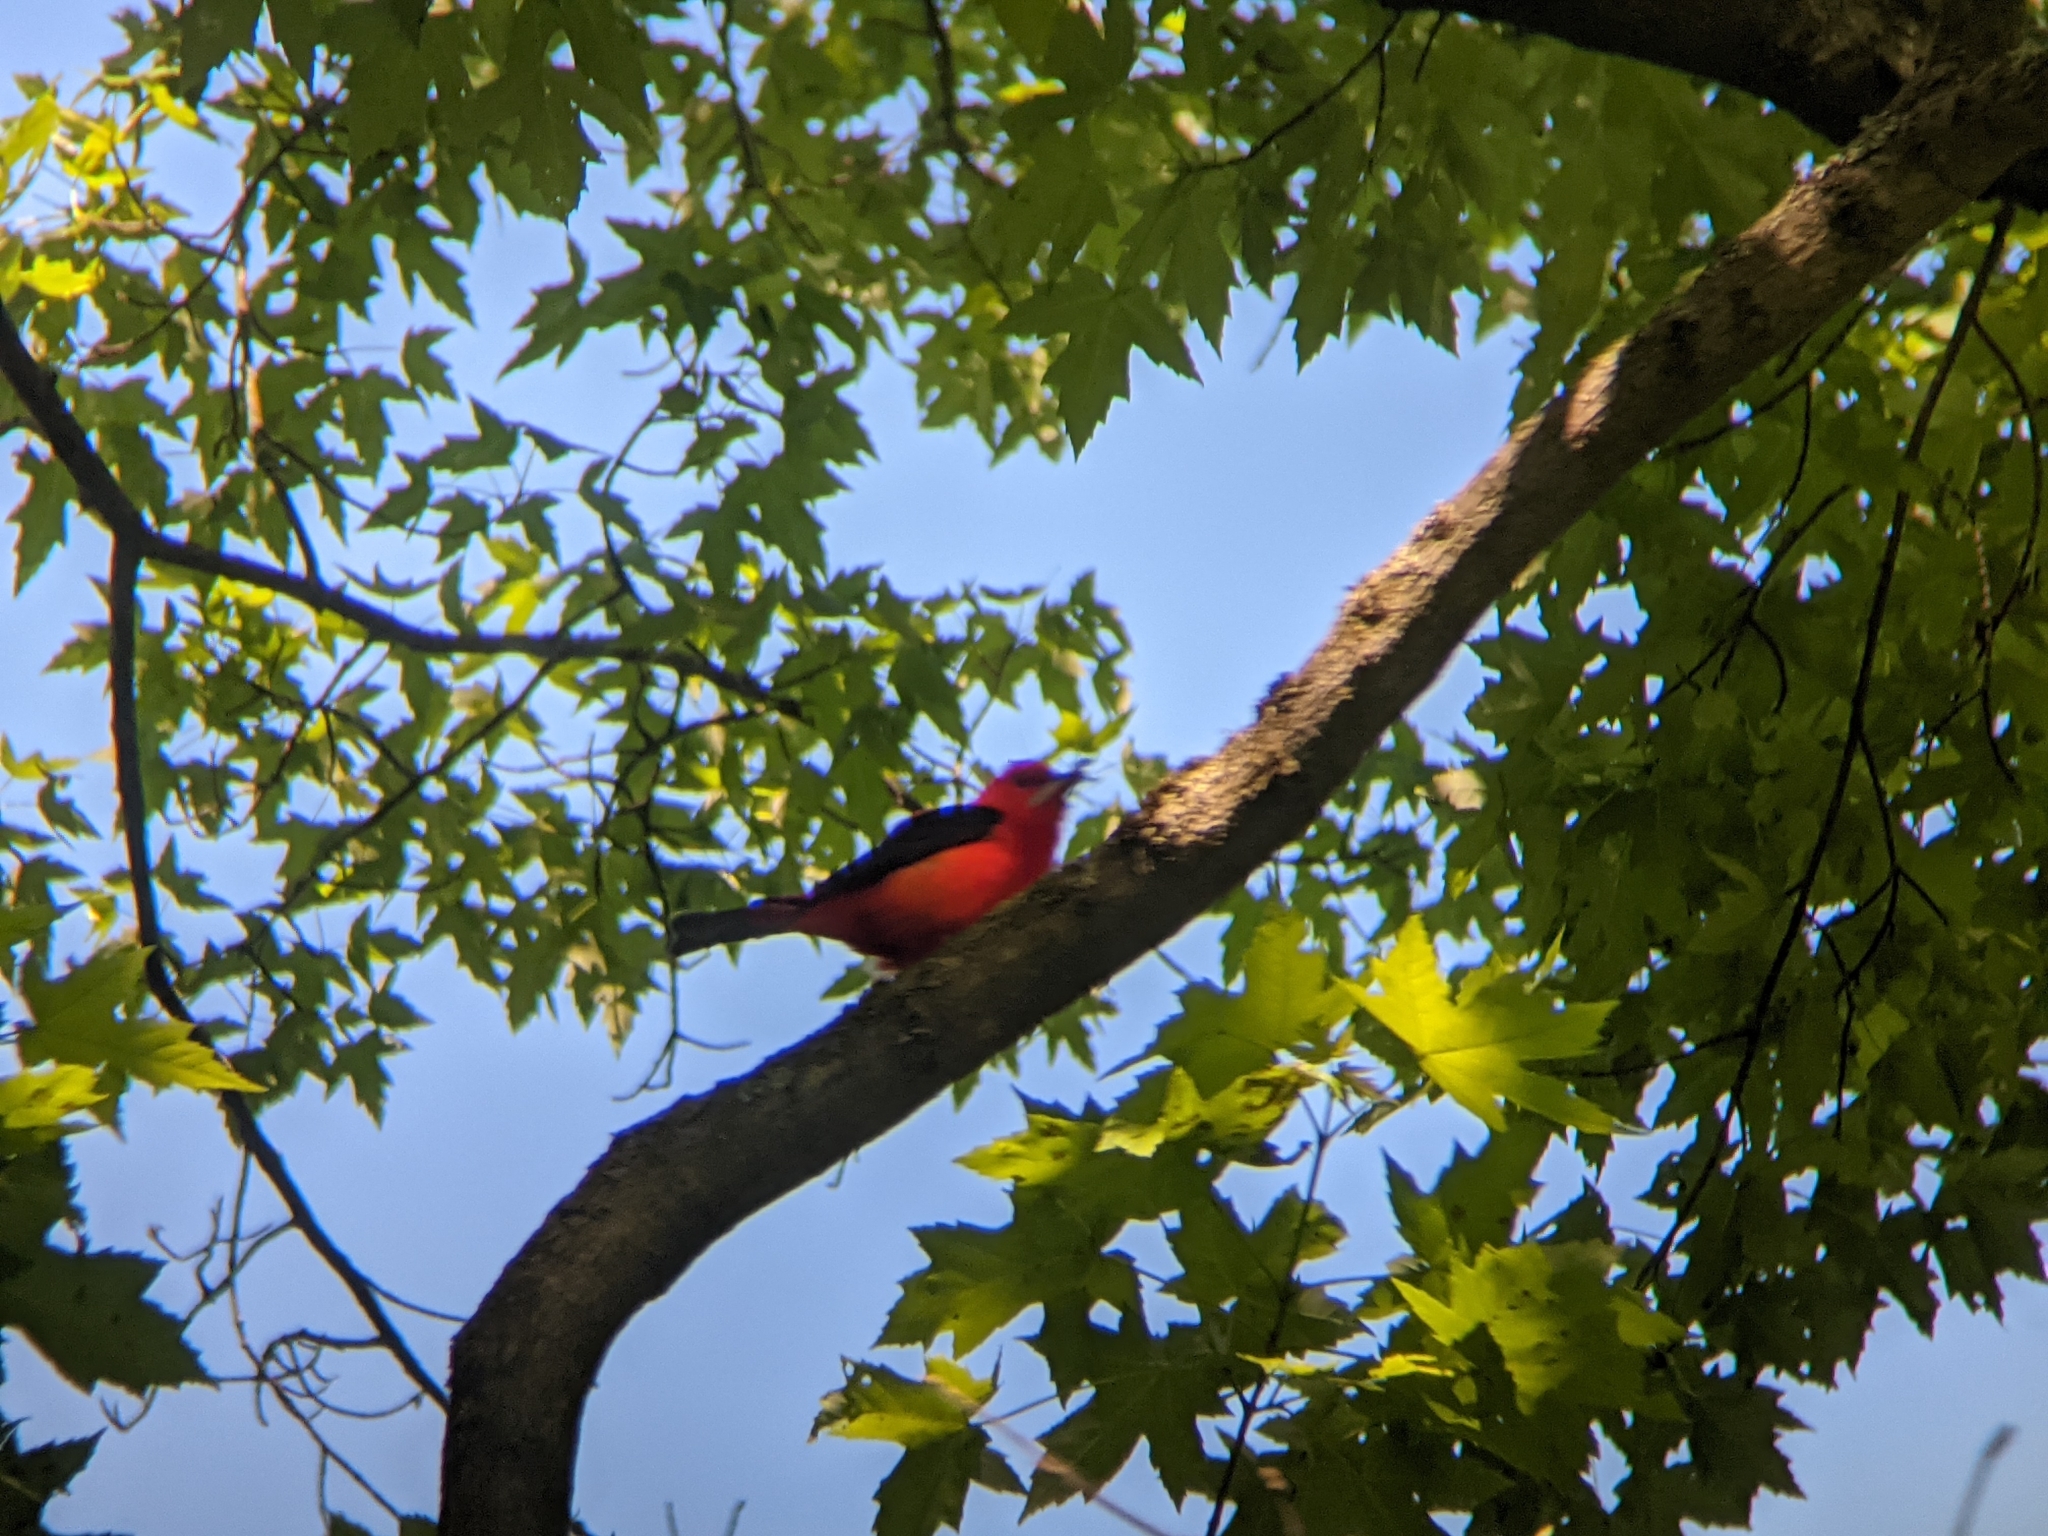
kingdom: Animalia
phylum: Chordata
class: Aves
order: Passeriformes
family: Cardinalidae
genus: Piranga
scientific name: Piranga olivacea
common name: Scarlet tanager
